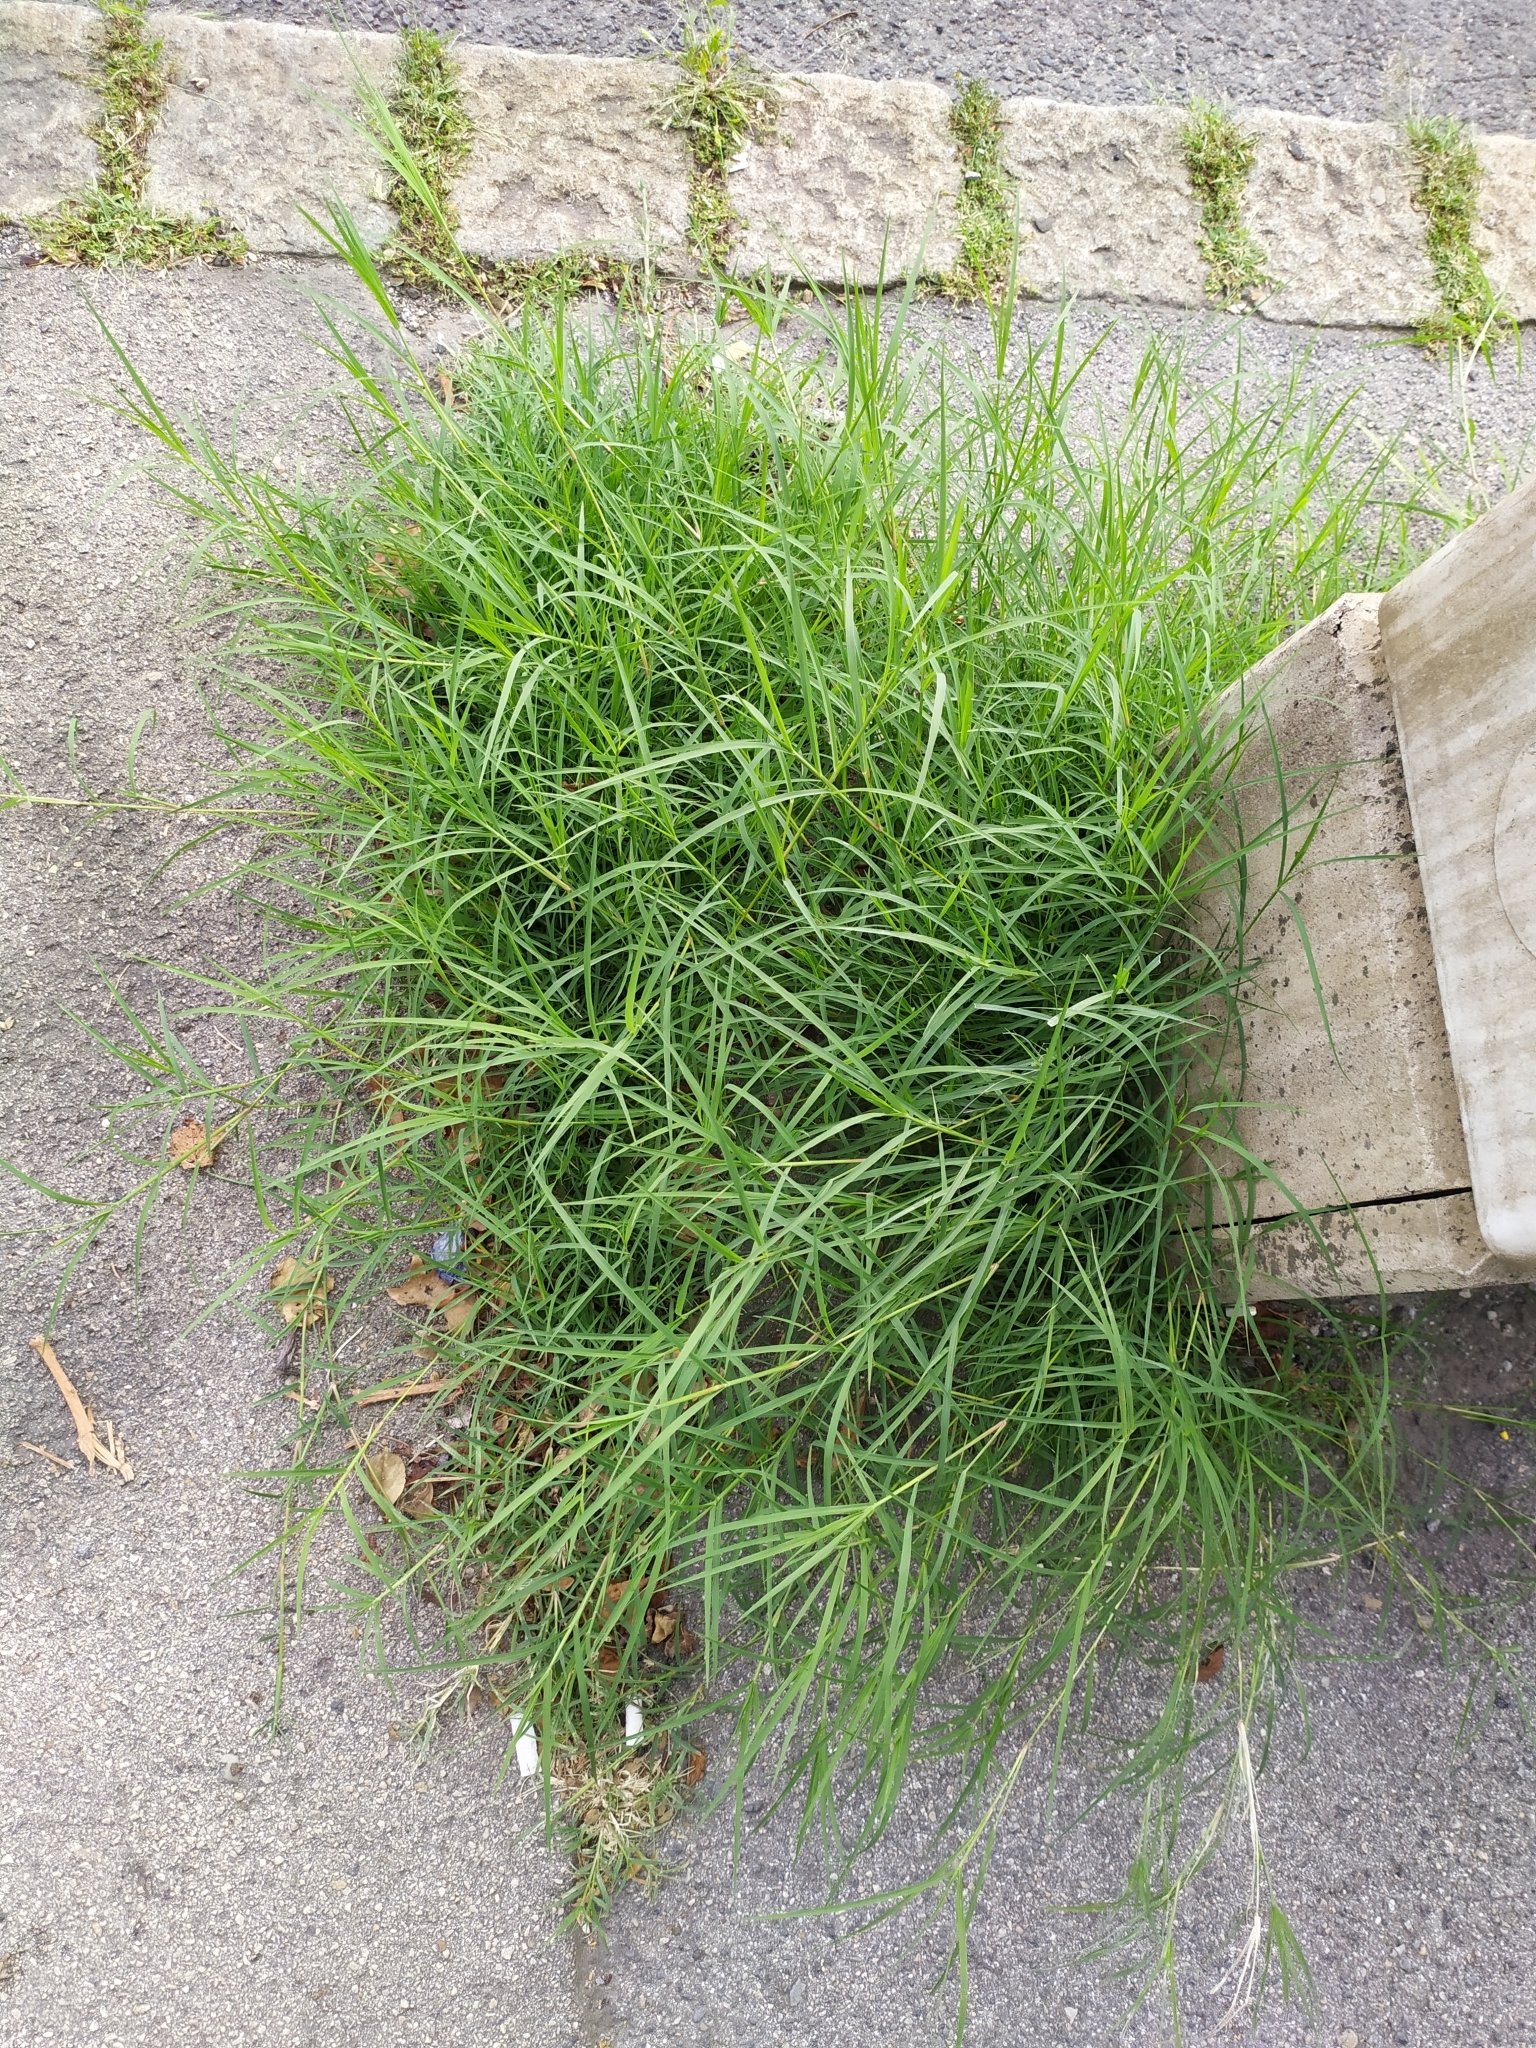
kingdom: Plantae
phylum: Tracheophyta
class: Liliopsida
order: Poales
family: Poaceae
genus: Cynodon
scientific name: Cynodon dactylon
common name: Bermuda grass
